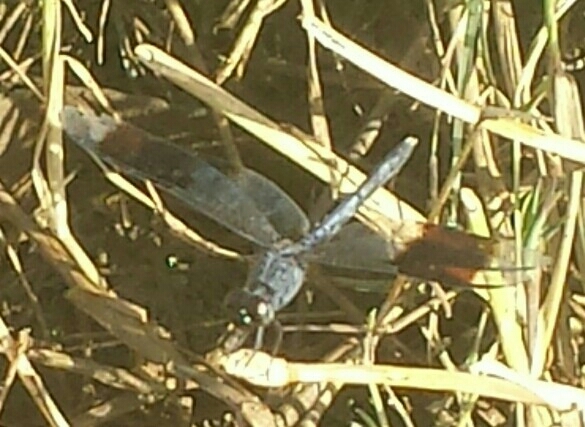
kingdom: Animalia
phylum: Arthropoda
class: Insecta
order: Odonata
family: Libellulidae
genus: Erythrodiplax
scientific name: Erythrodiplax umbrata
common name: Band-winged dragonlet
